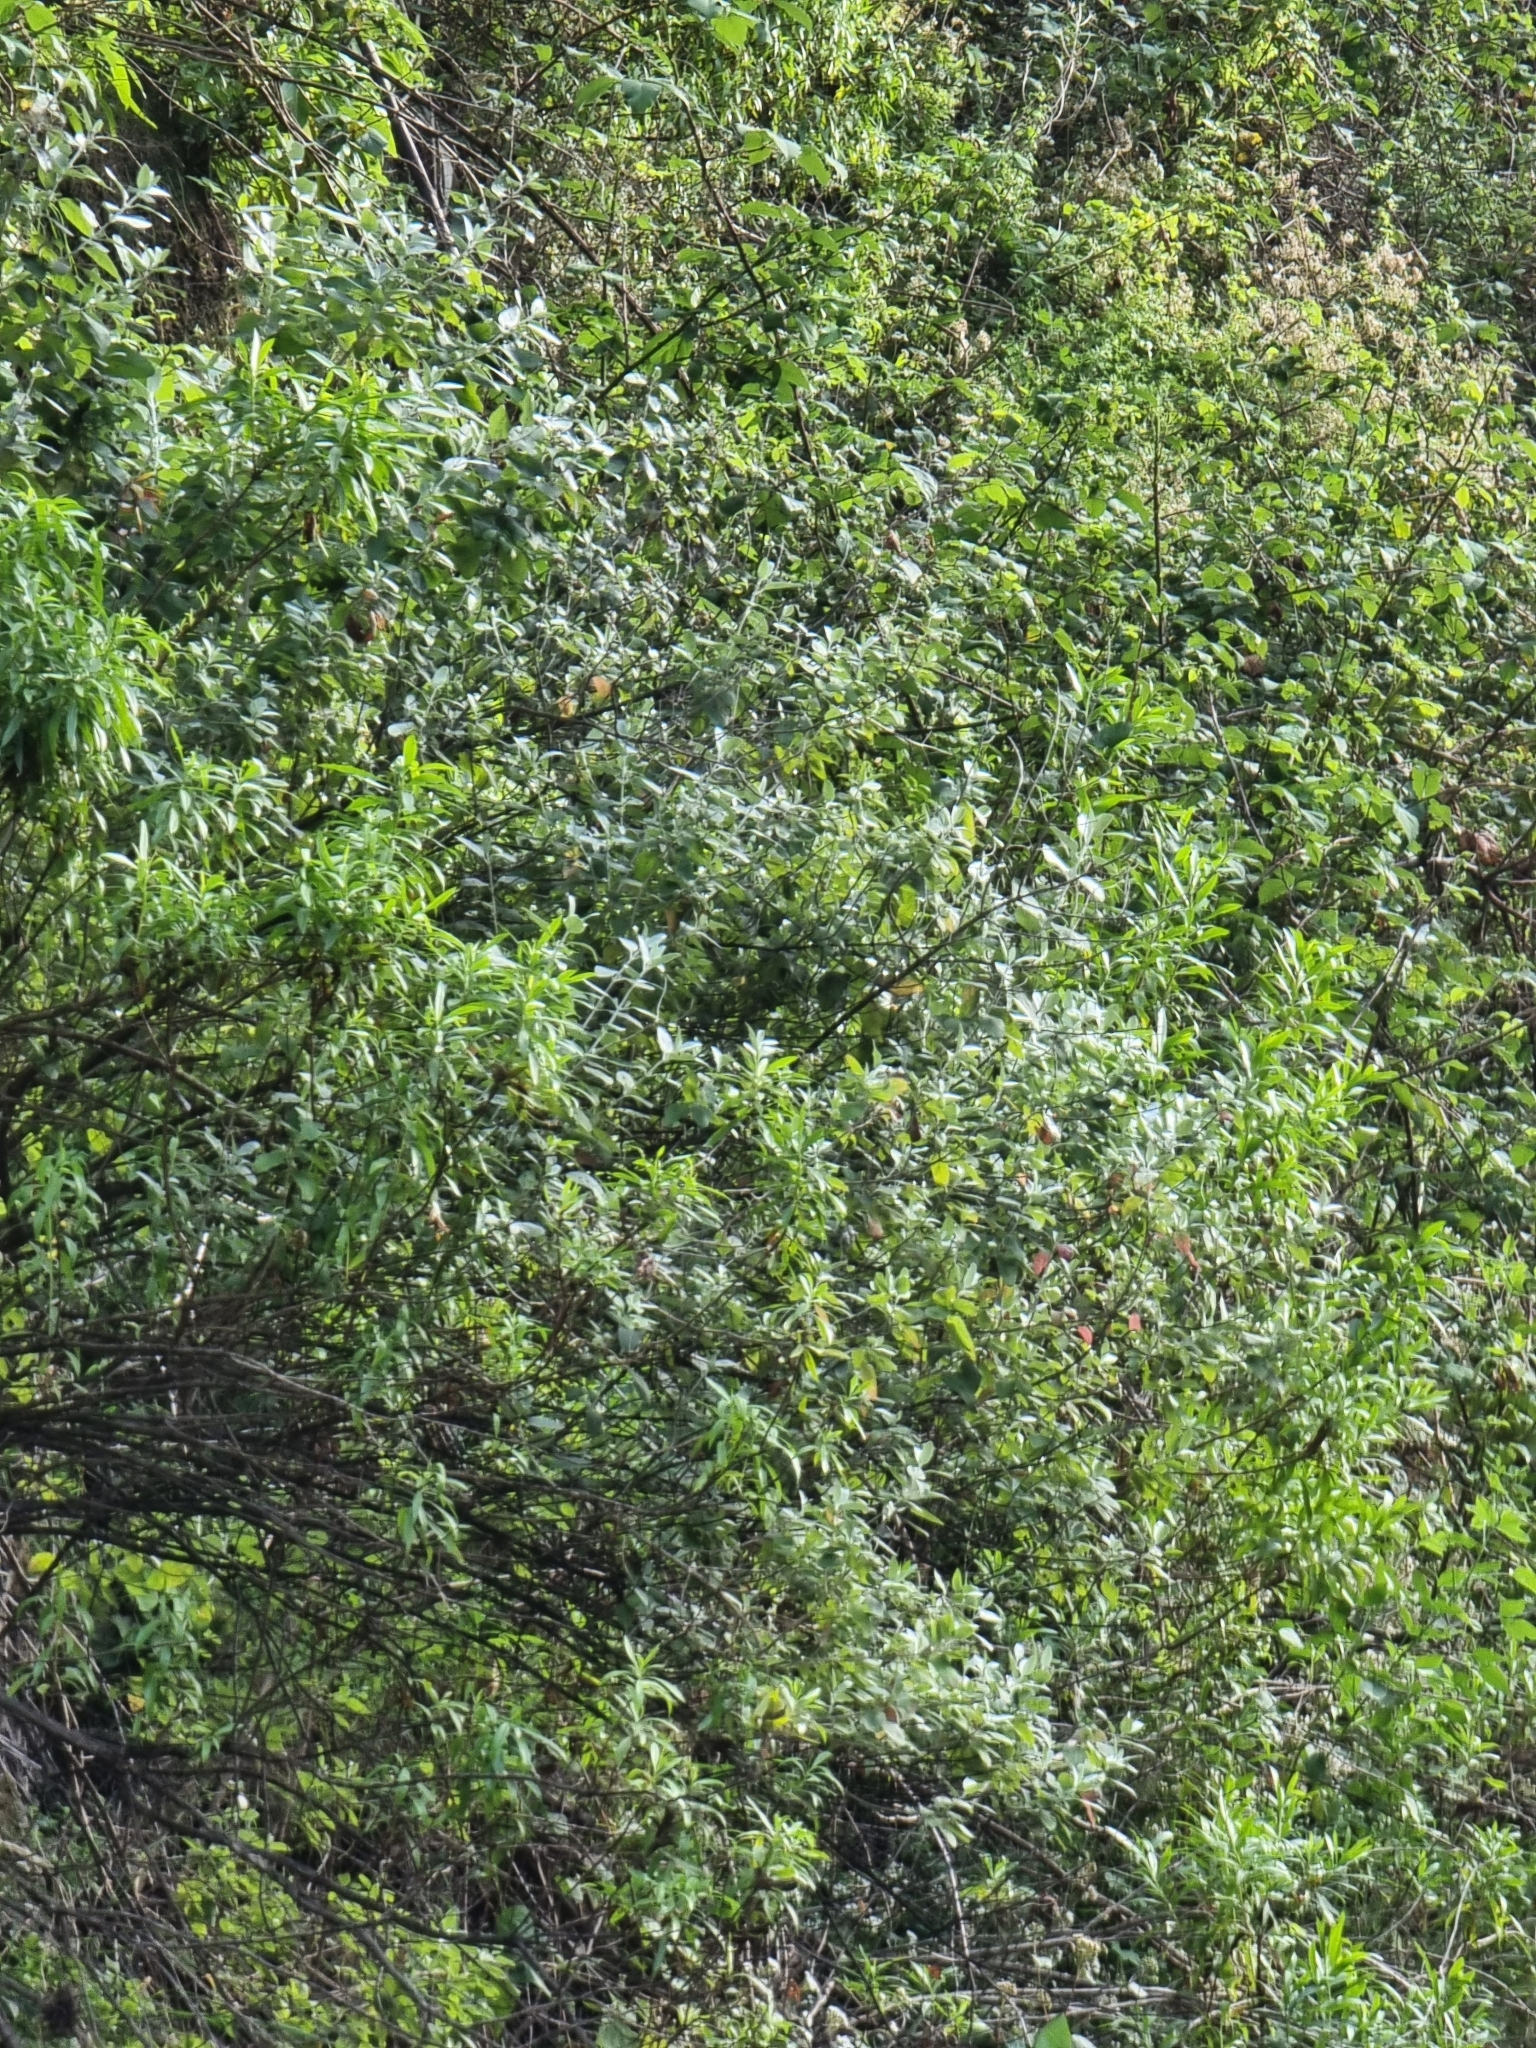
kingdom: Plantae
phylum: Tracheophyta
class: Magnoliopsida
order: Lamiales
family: Lamiaceae
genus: Teucrium
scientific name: Teucrium heterophyllum
